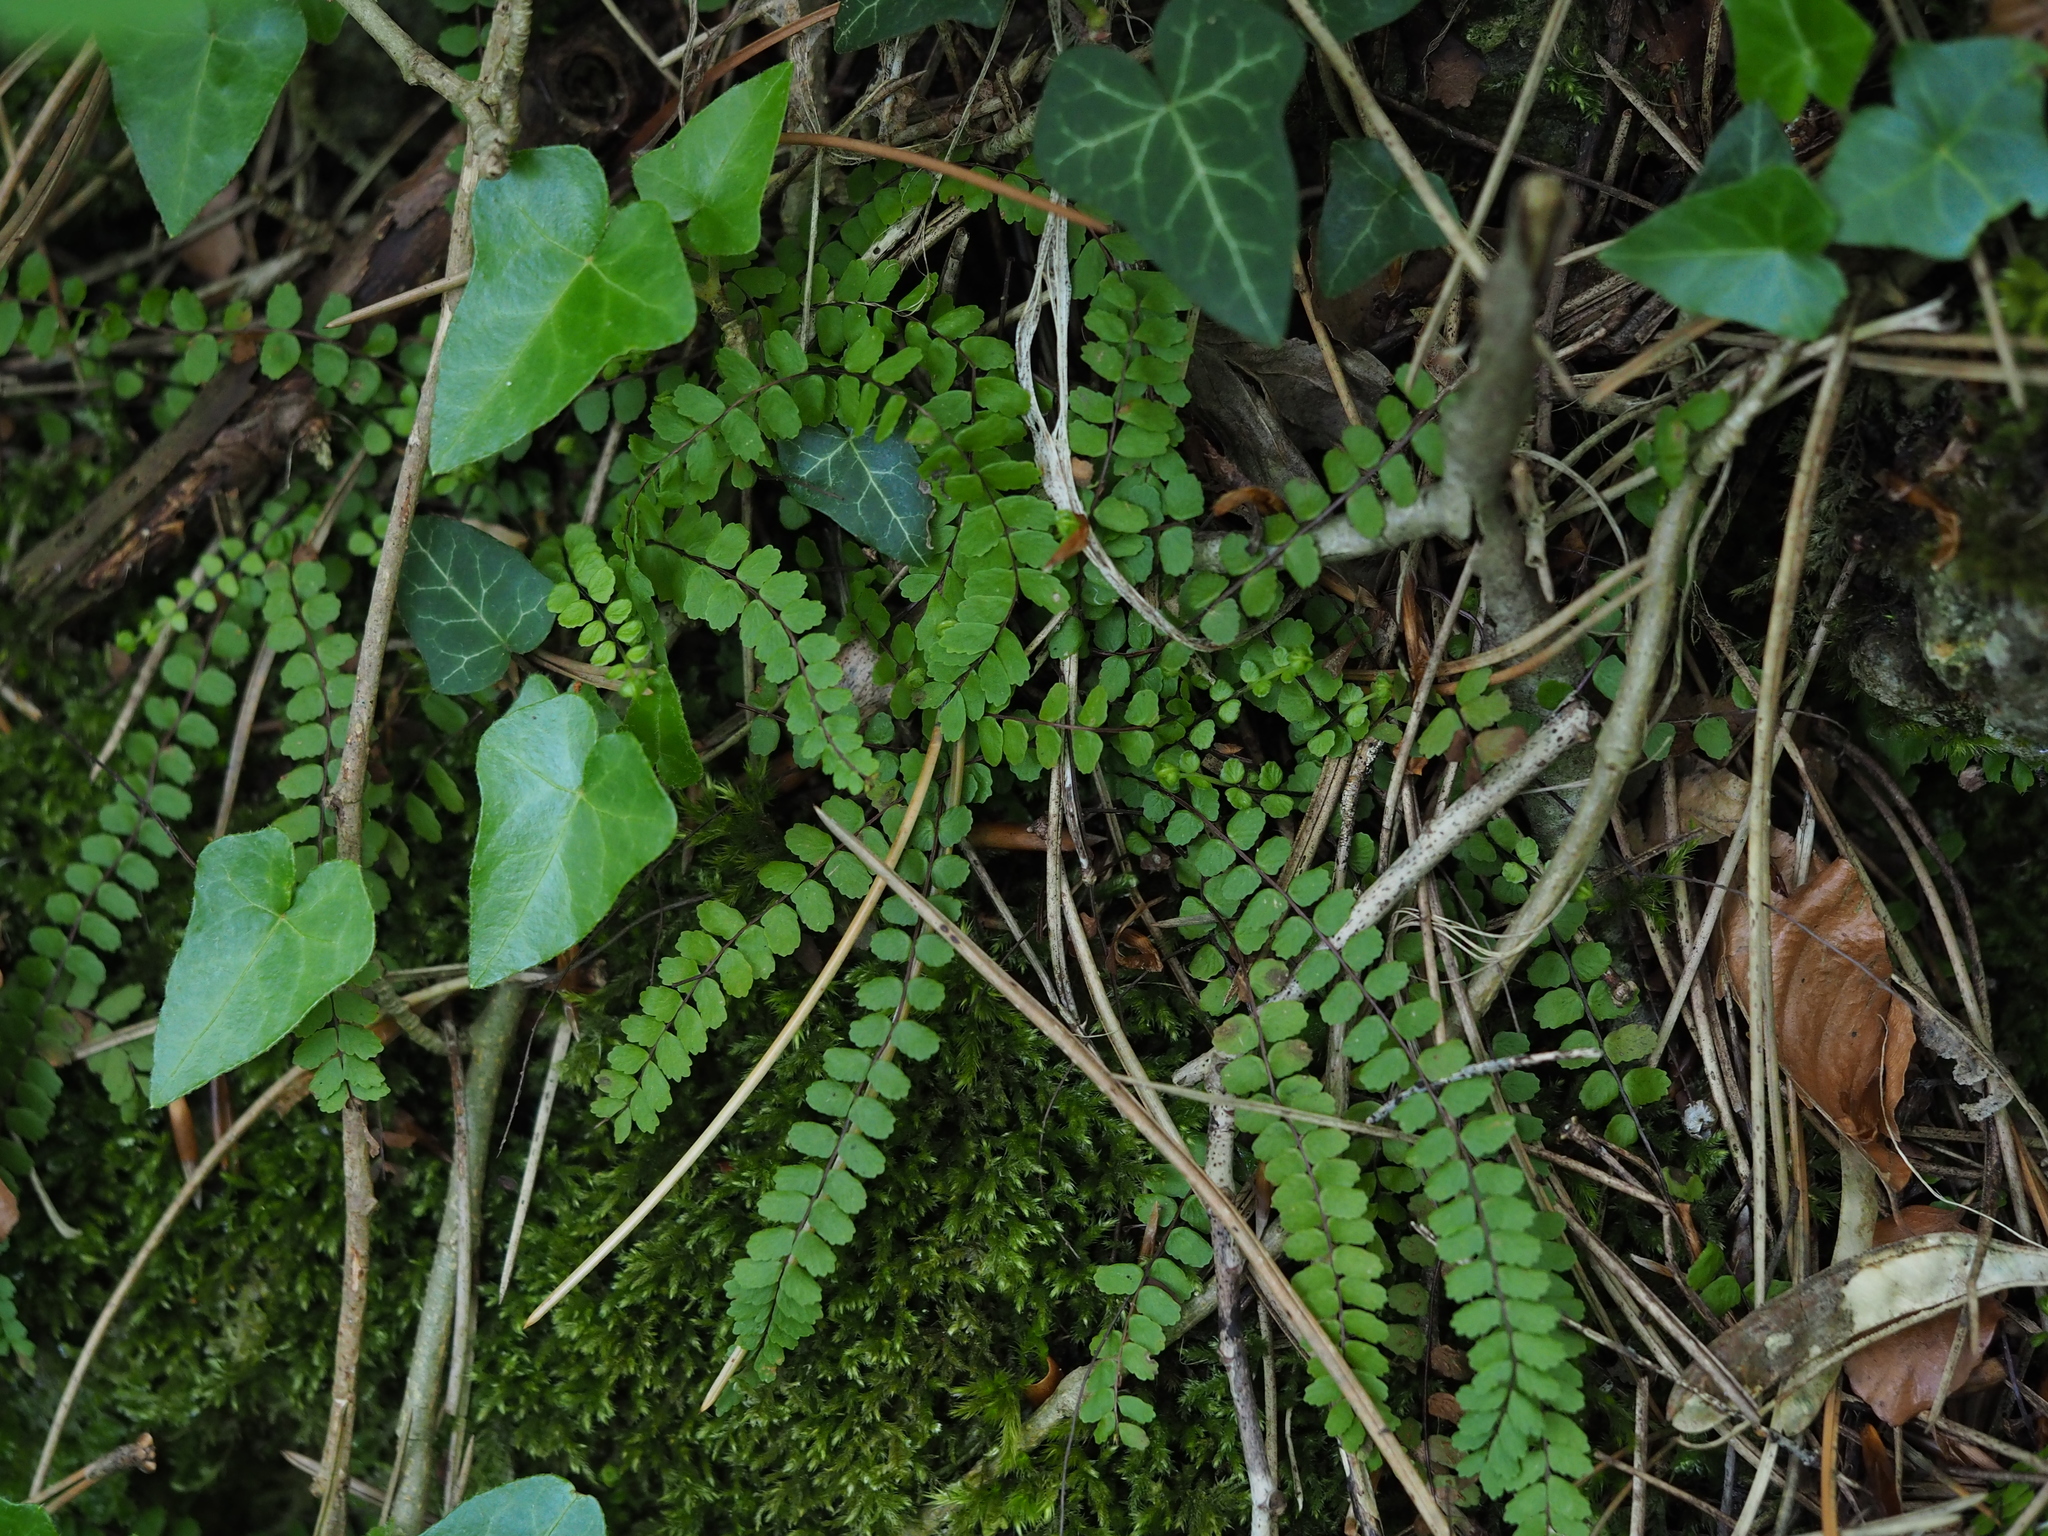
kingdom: Plantae
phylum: Tracheophyta
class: Polypodiopsida
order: Polypodiales
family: Aspleniaceae
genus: Asplenium
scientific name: Asplenium trichomanes
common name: Maidenhair spleenwort
